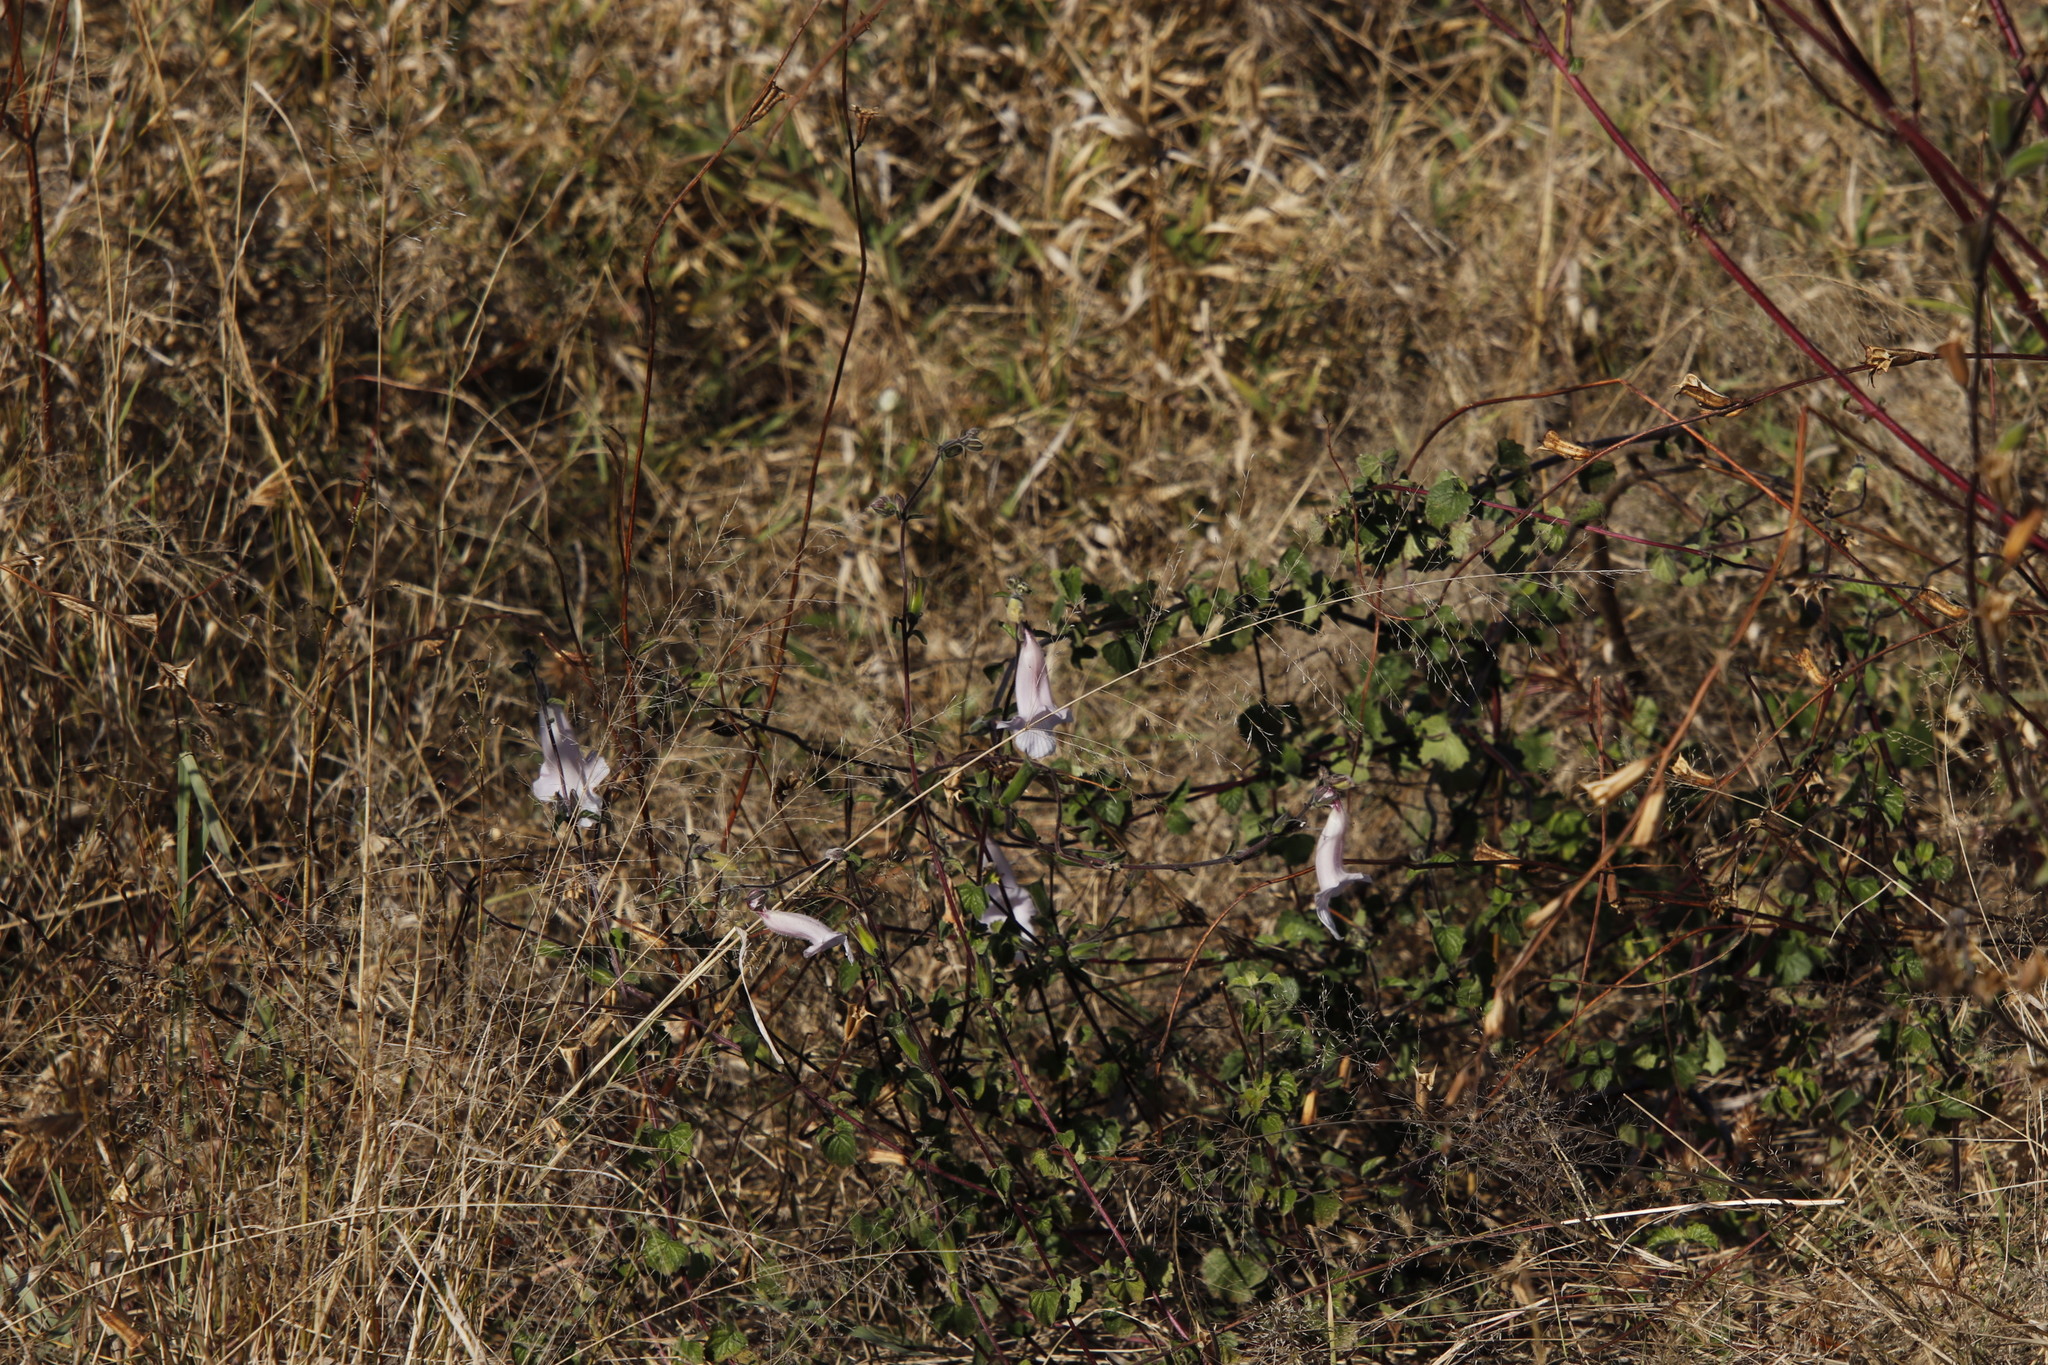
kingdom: Plantae
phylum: Tracheophyta
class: Magnoliopsida
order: Lamiales
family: Pedaliaceae
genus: Sesamum
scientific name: Sesamum trilobum
